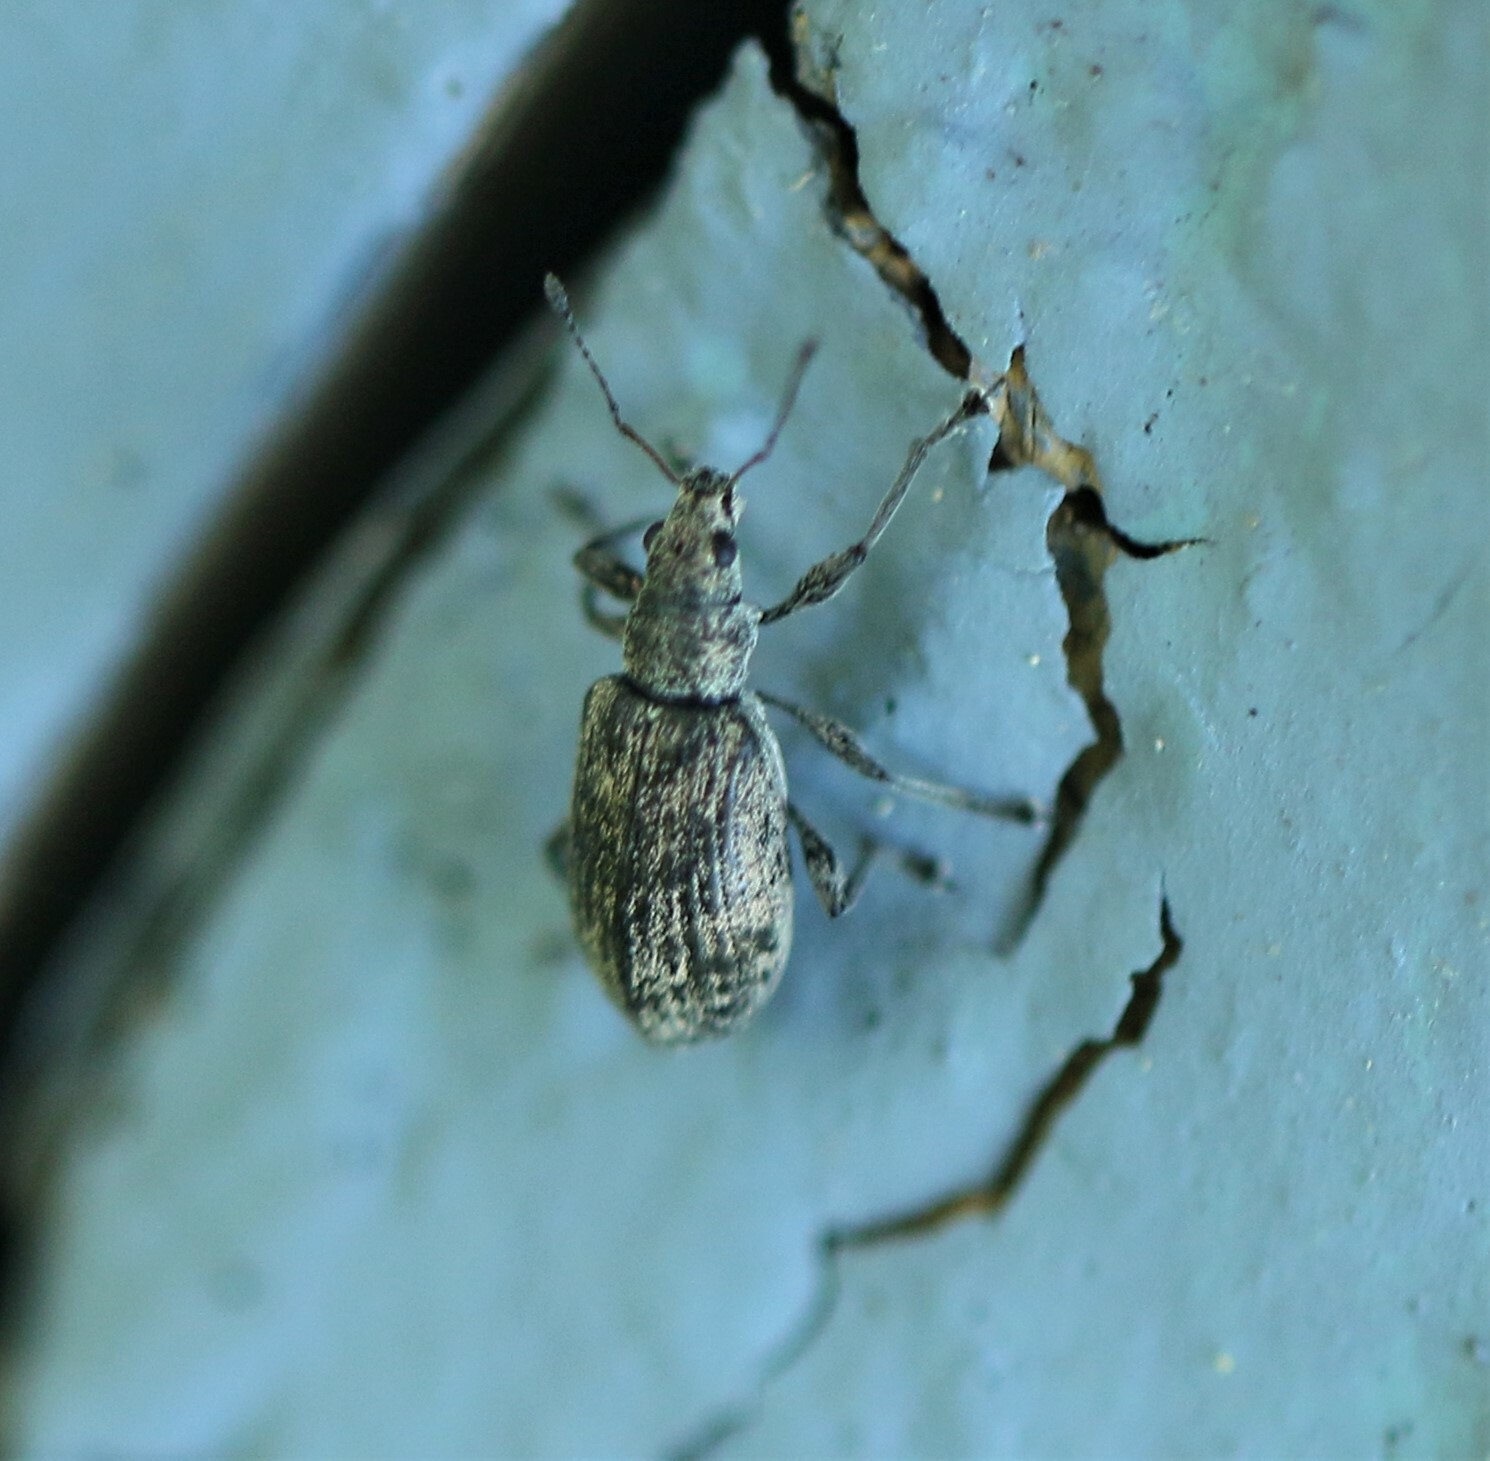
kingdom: Animalia
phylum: Arthropoda
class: Insecta
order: Coleoptera
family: Curculionidae
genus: Polydrusus
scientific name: Polydrusus cervinus
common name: Weevil
